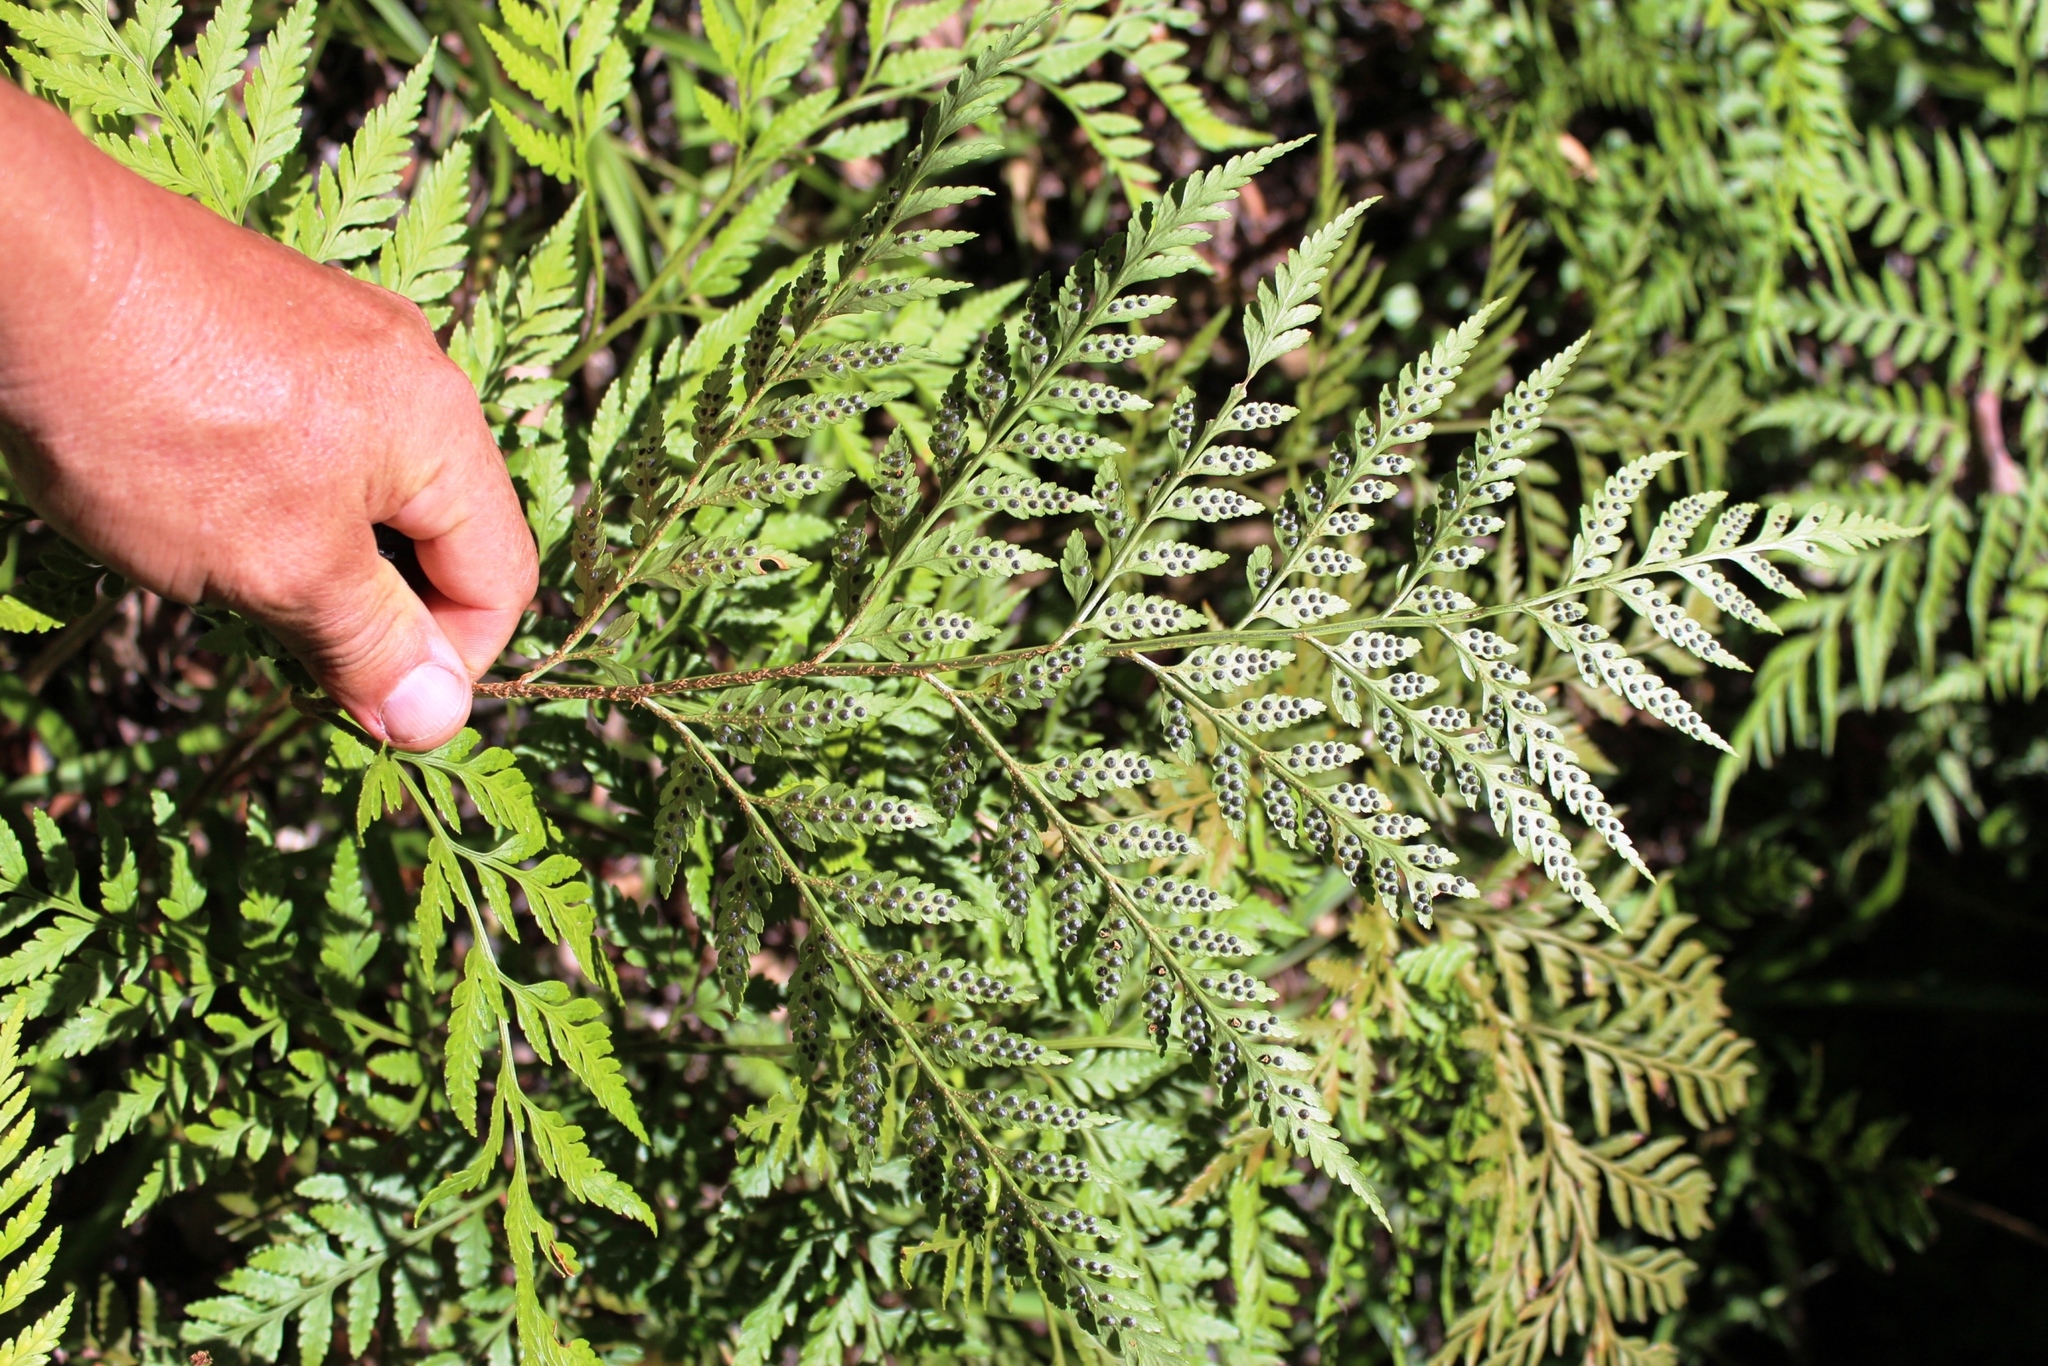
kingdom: Plantae
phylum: Tracheophyta
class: Polypodiopsida
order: Polypodiales
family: Dryopteridaceae
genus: Rumohra
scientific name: Rumohra adiantiformis
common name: Leather fern
